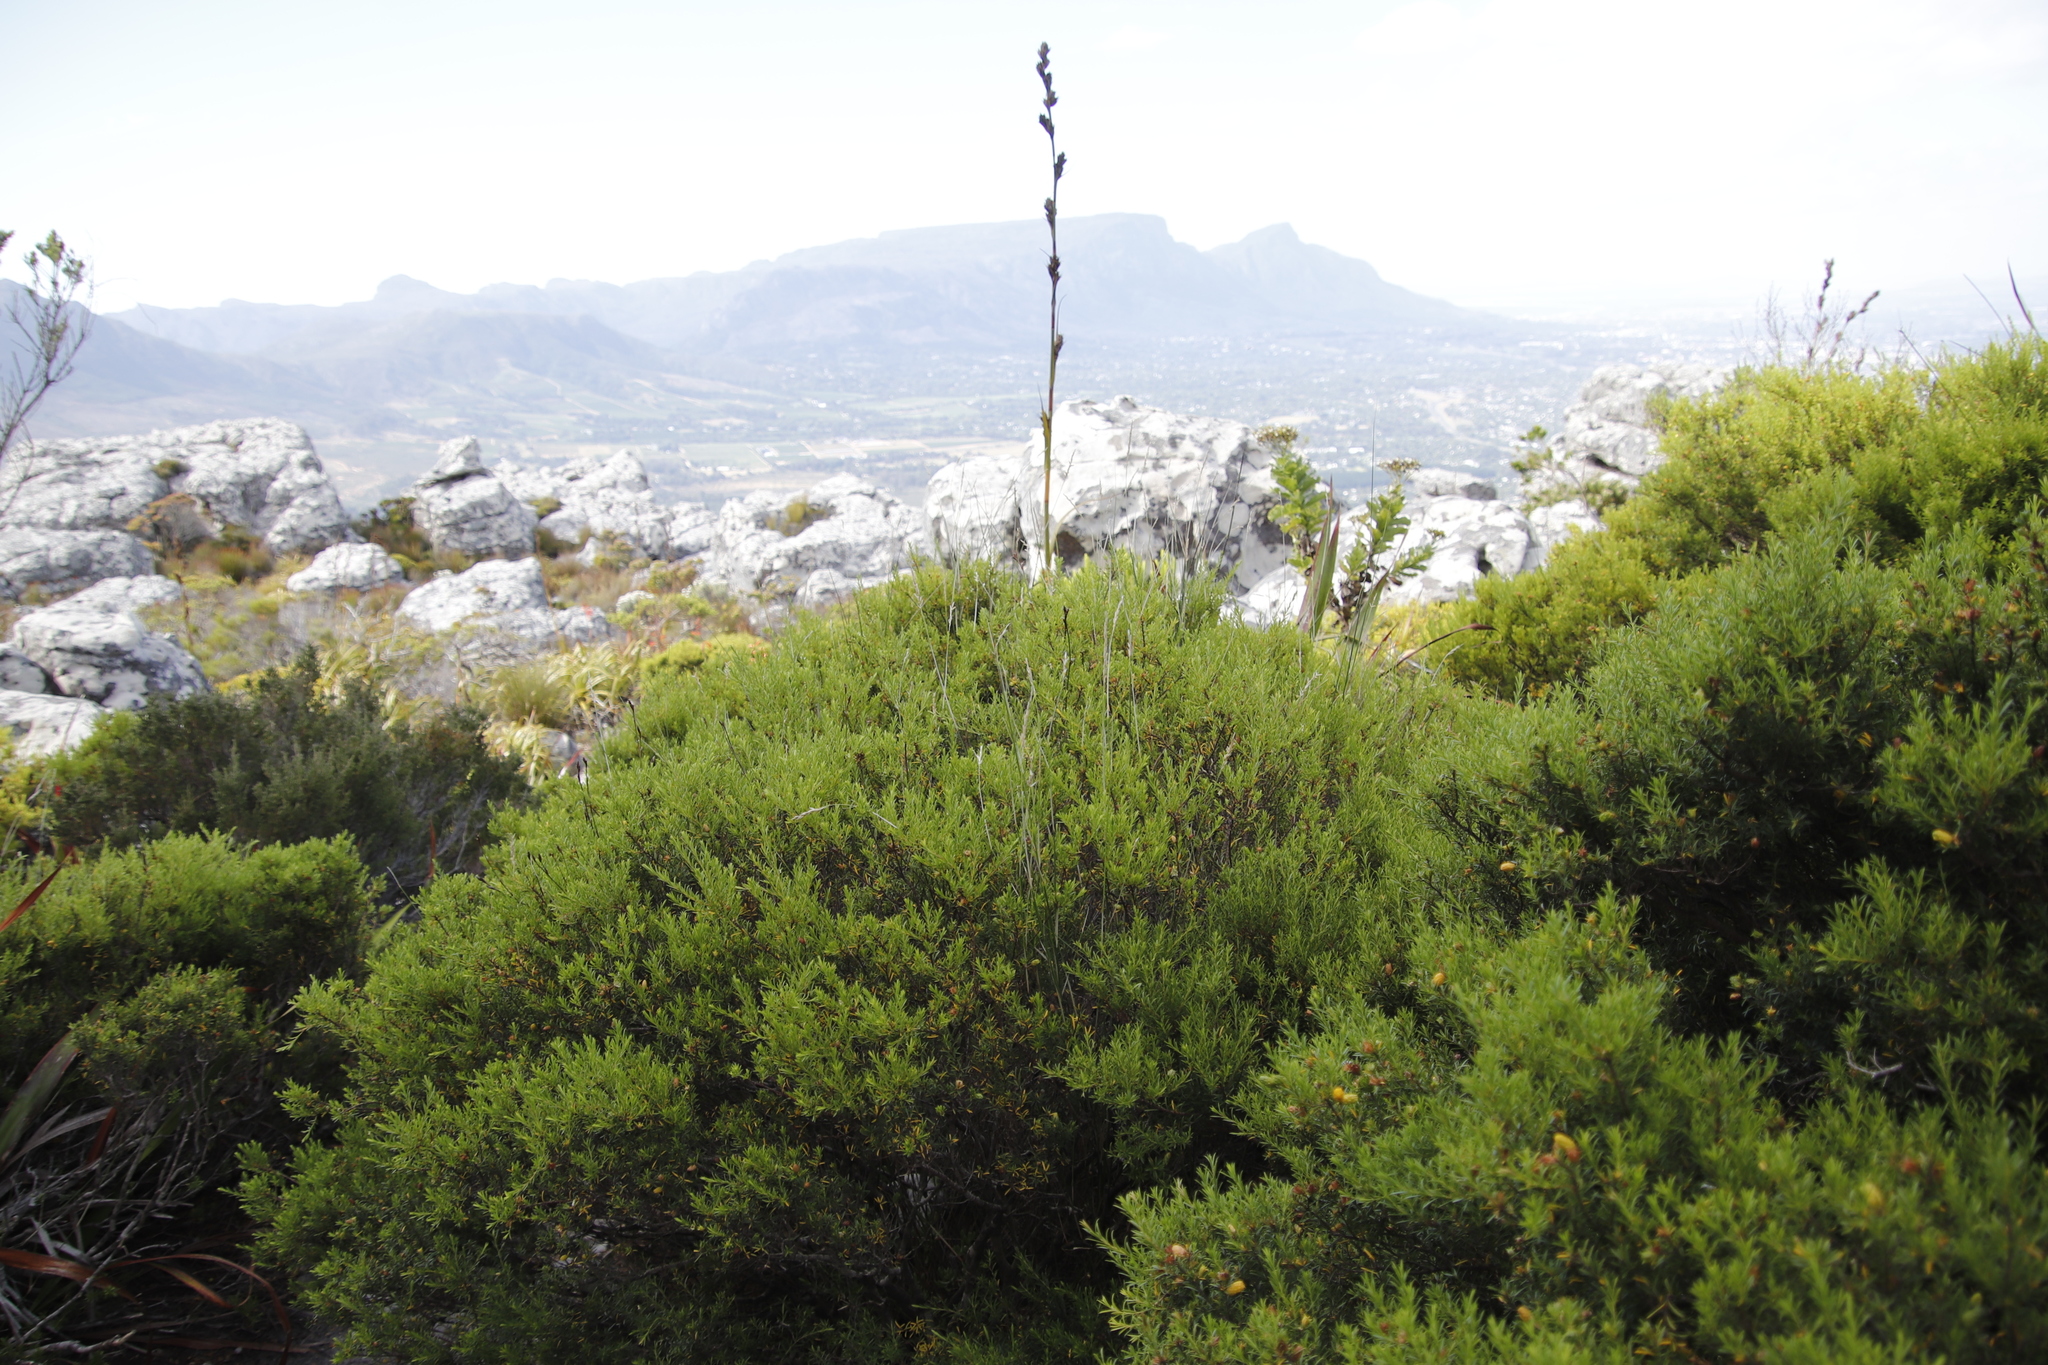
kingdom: Plantae
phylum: Tracheophyta
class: Magnoliopsida
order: Sapindales
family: Rutaceae
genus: Coleonema
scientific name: Coleonema album
